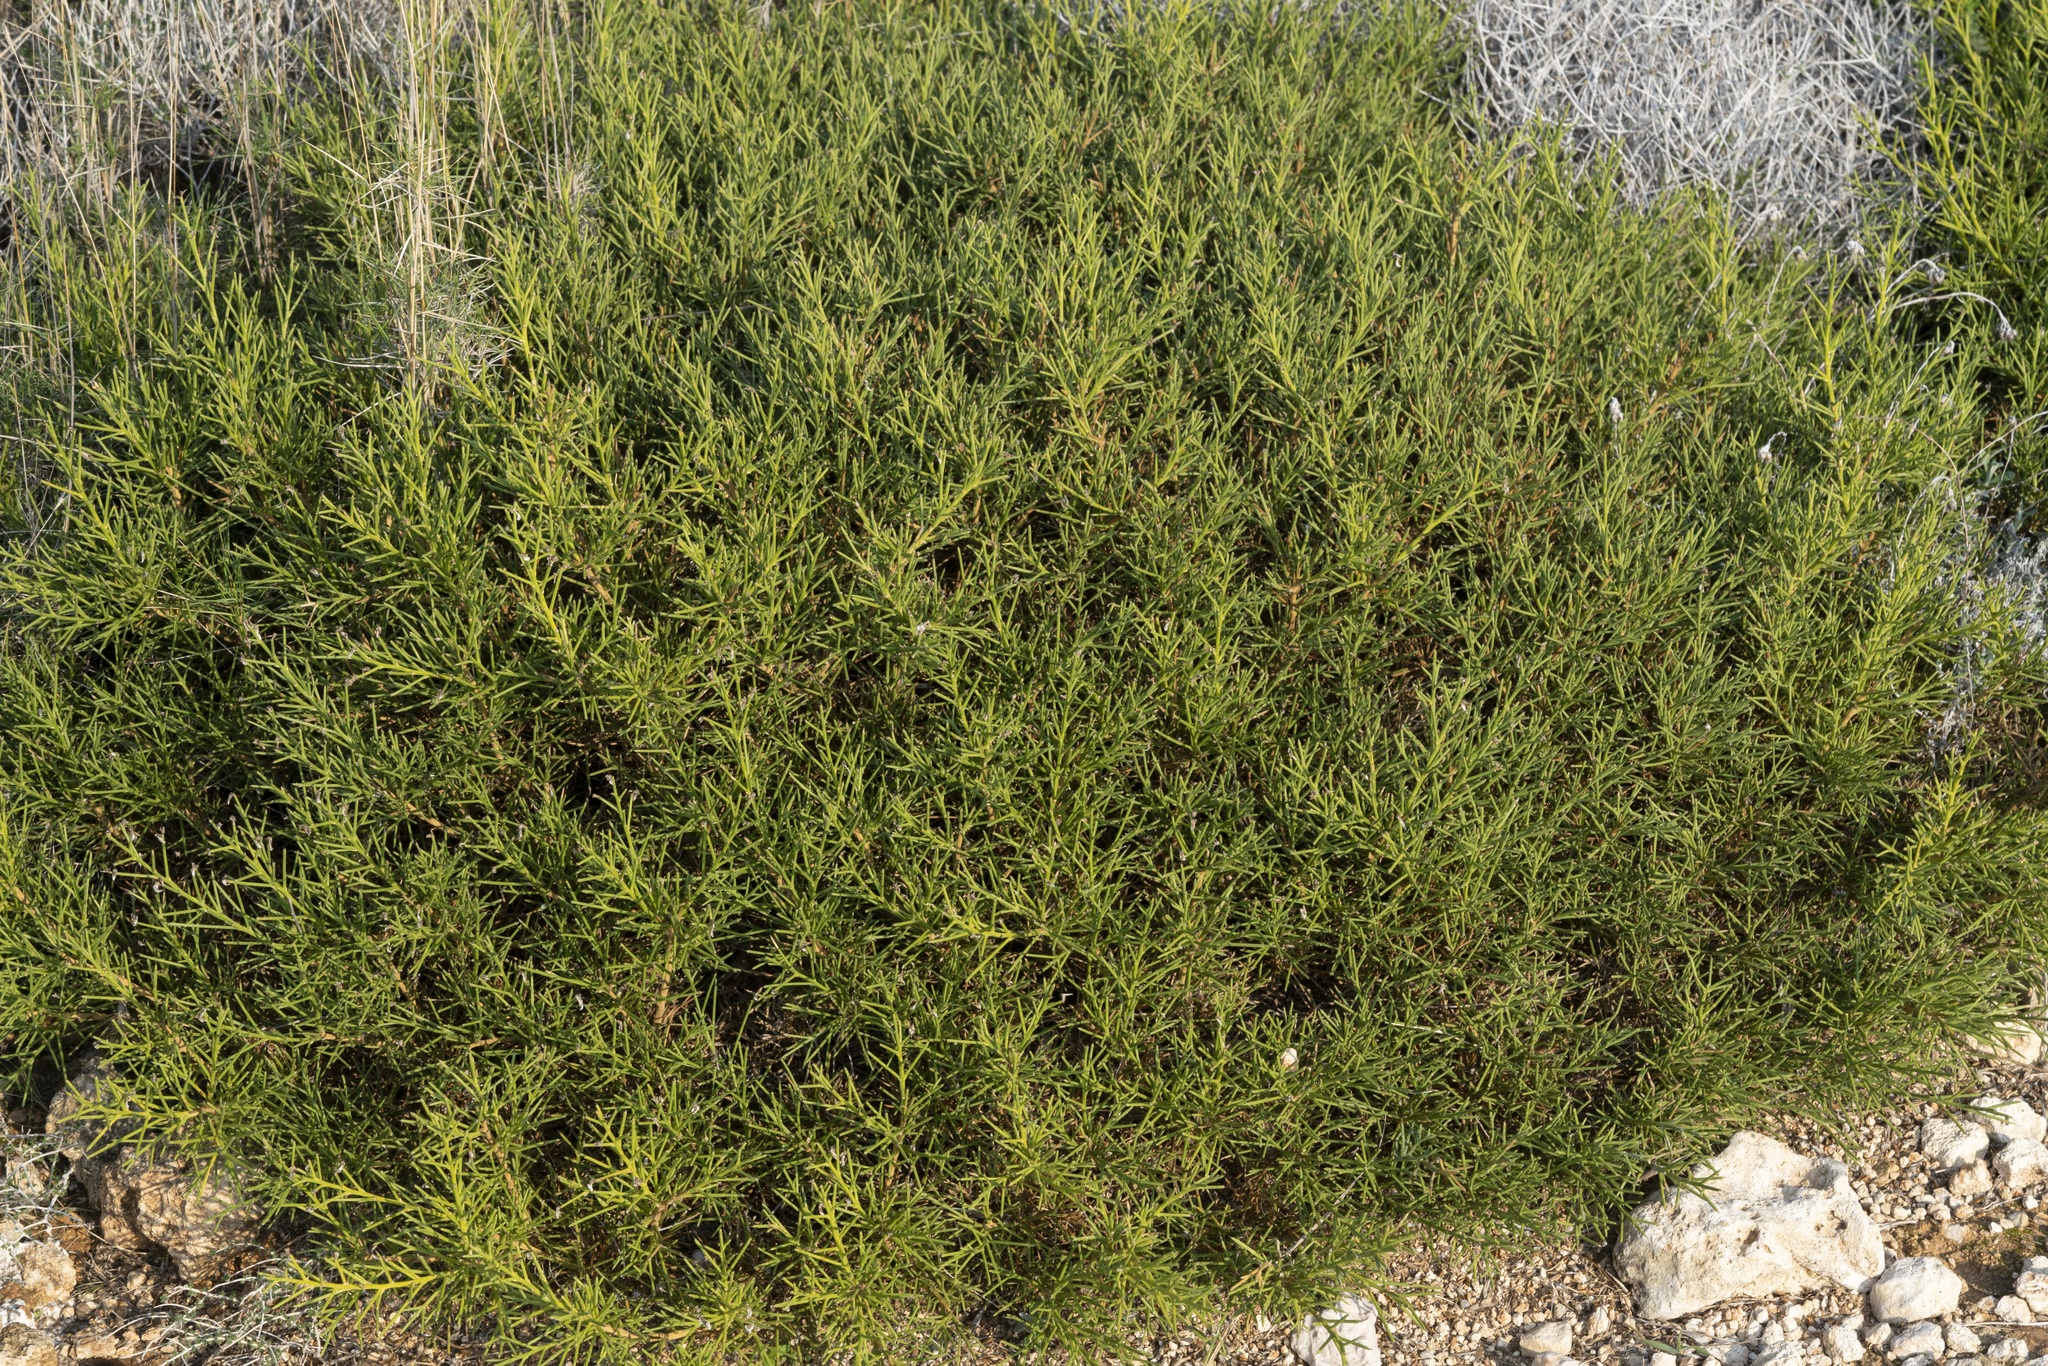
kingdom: Plantae
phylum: Tracheophyta
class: Magnoliopsida
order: Fabales
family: Fabaceae
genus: Genista
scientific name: Genista acanthoclada
